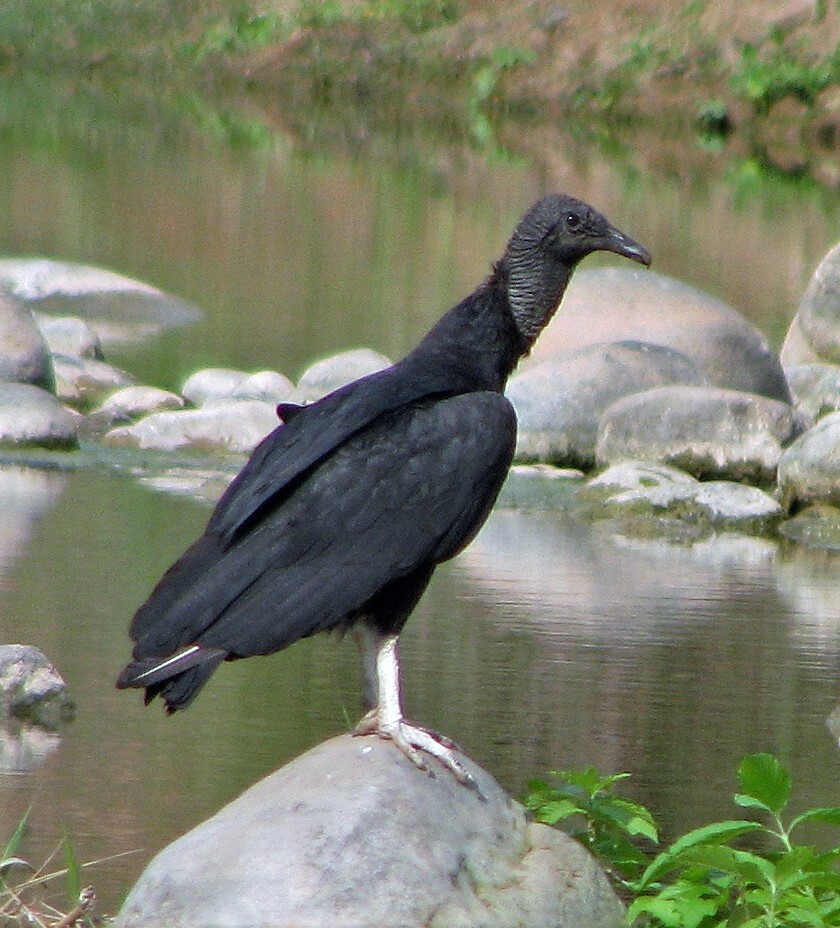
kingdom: Animalia
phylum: Chordata
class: Aves
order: Accipitriformes
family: Cathartidae
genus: Coragyps
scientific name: Coragyps atratus
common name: Black vulture
